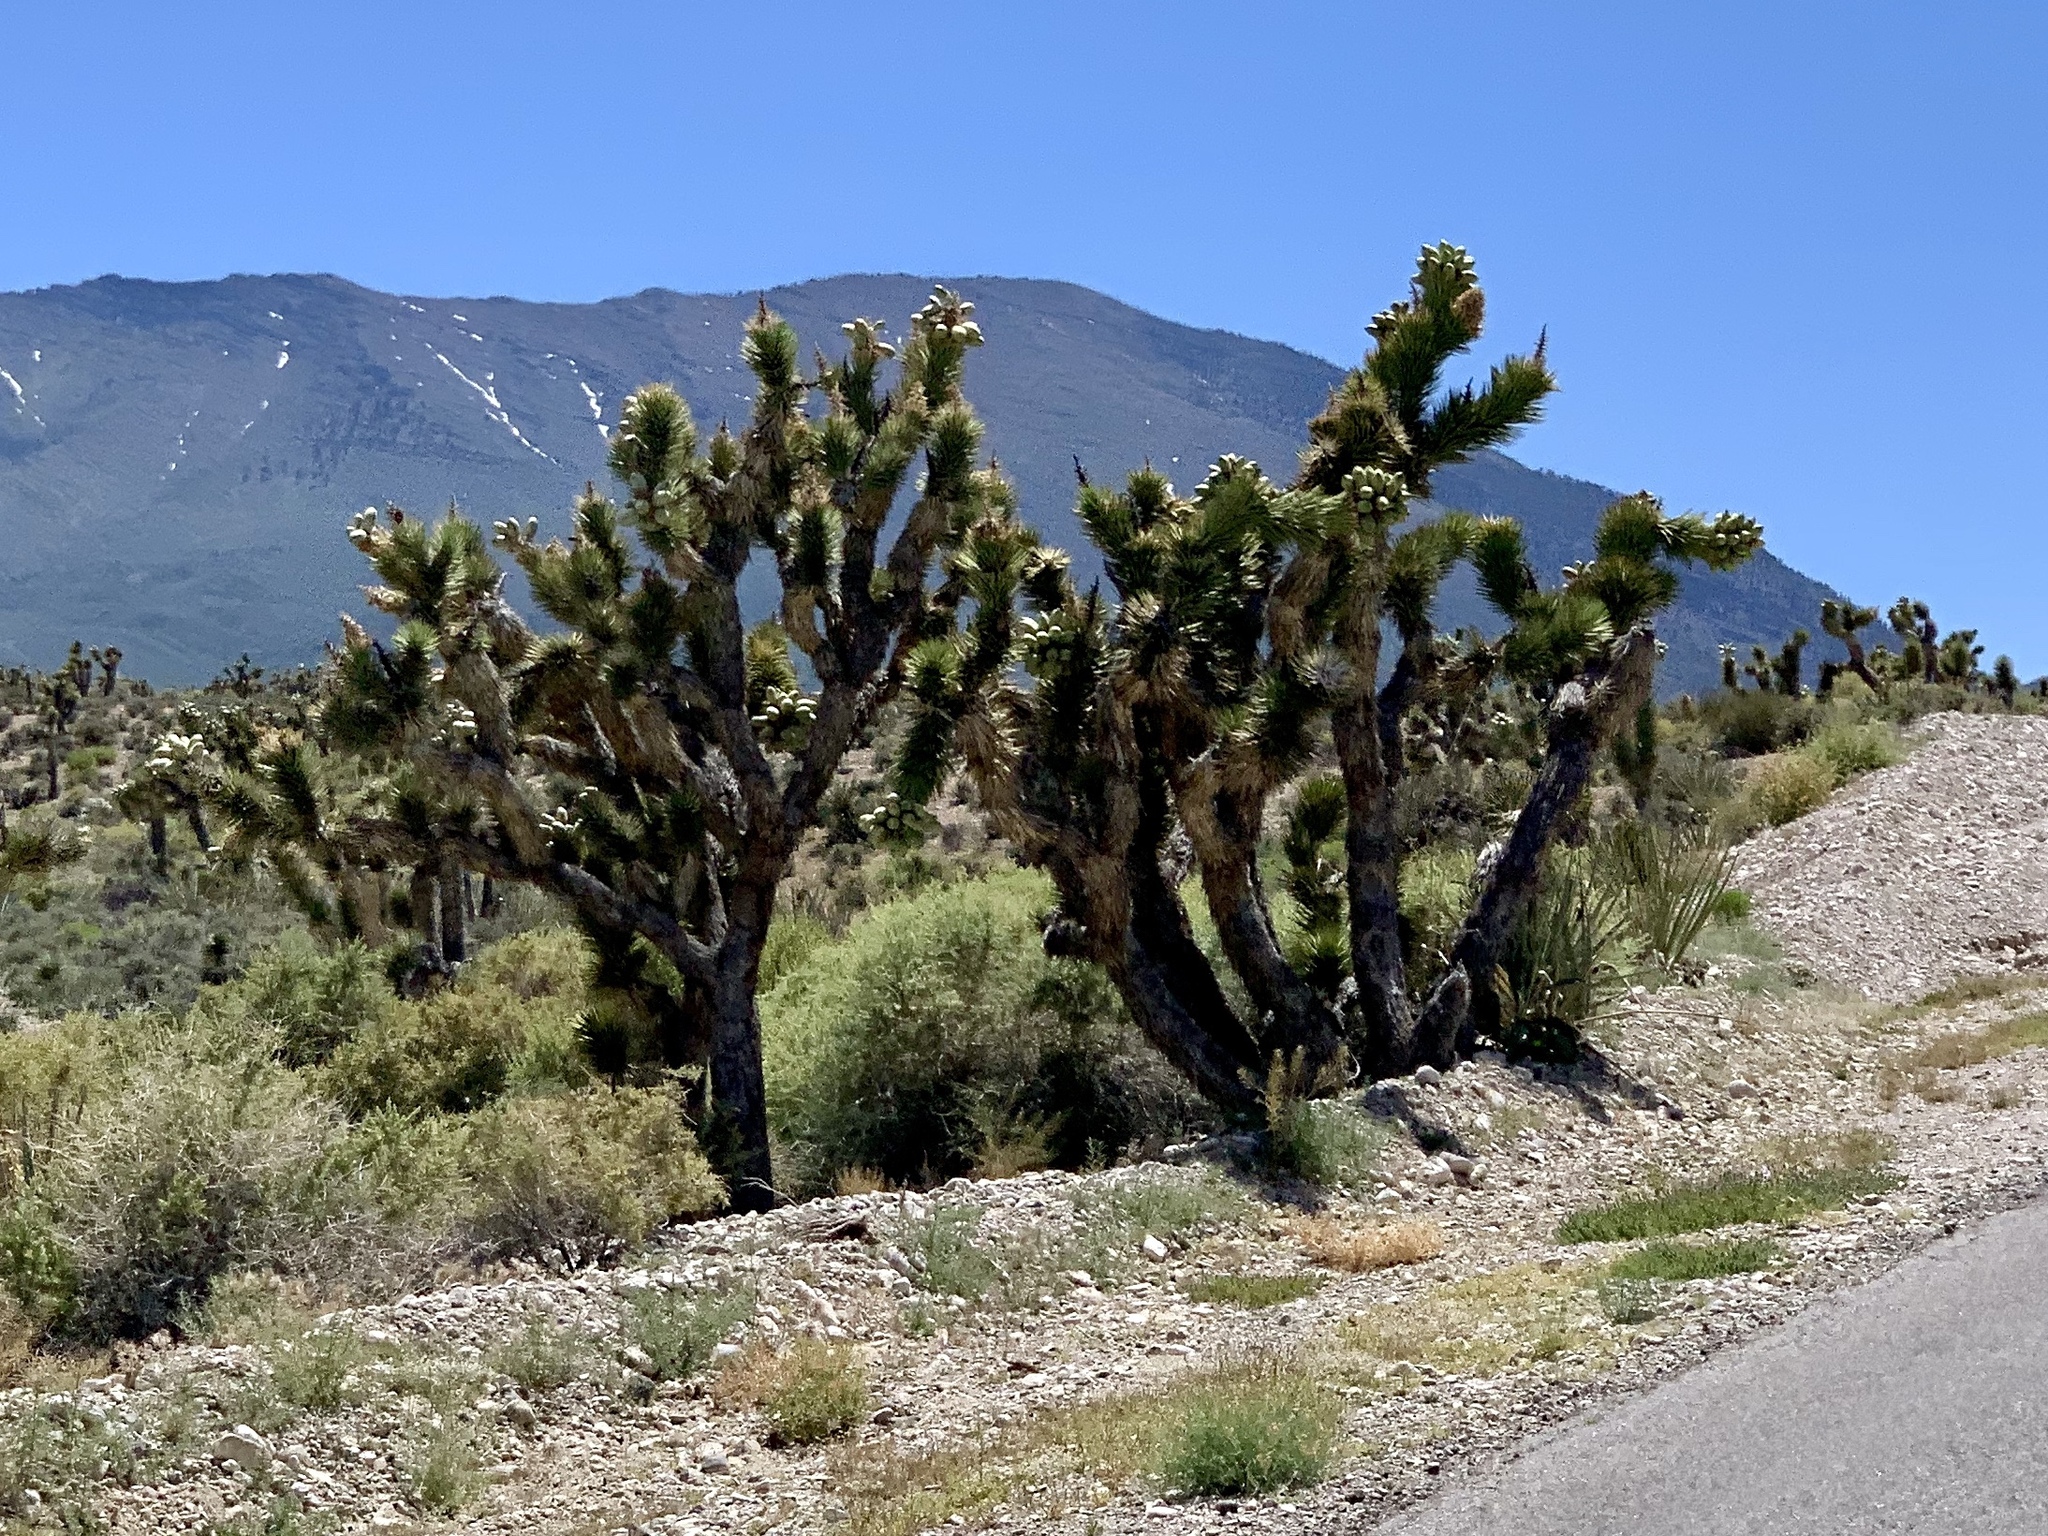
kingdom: Plantae
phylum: Tracheophyta
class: Liliopsida
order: Asparagales
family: Asparagaceae
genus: Yucca
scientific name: Yucca brevifolia
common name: Joshua tree
